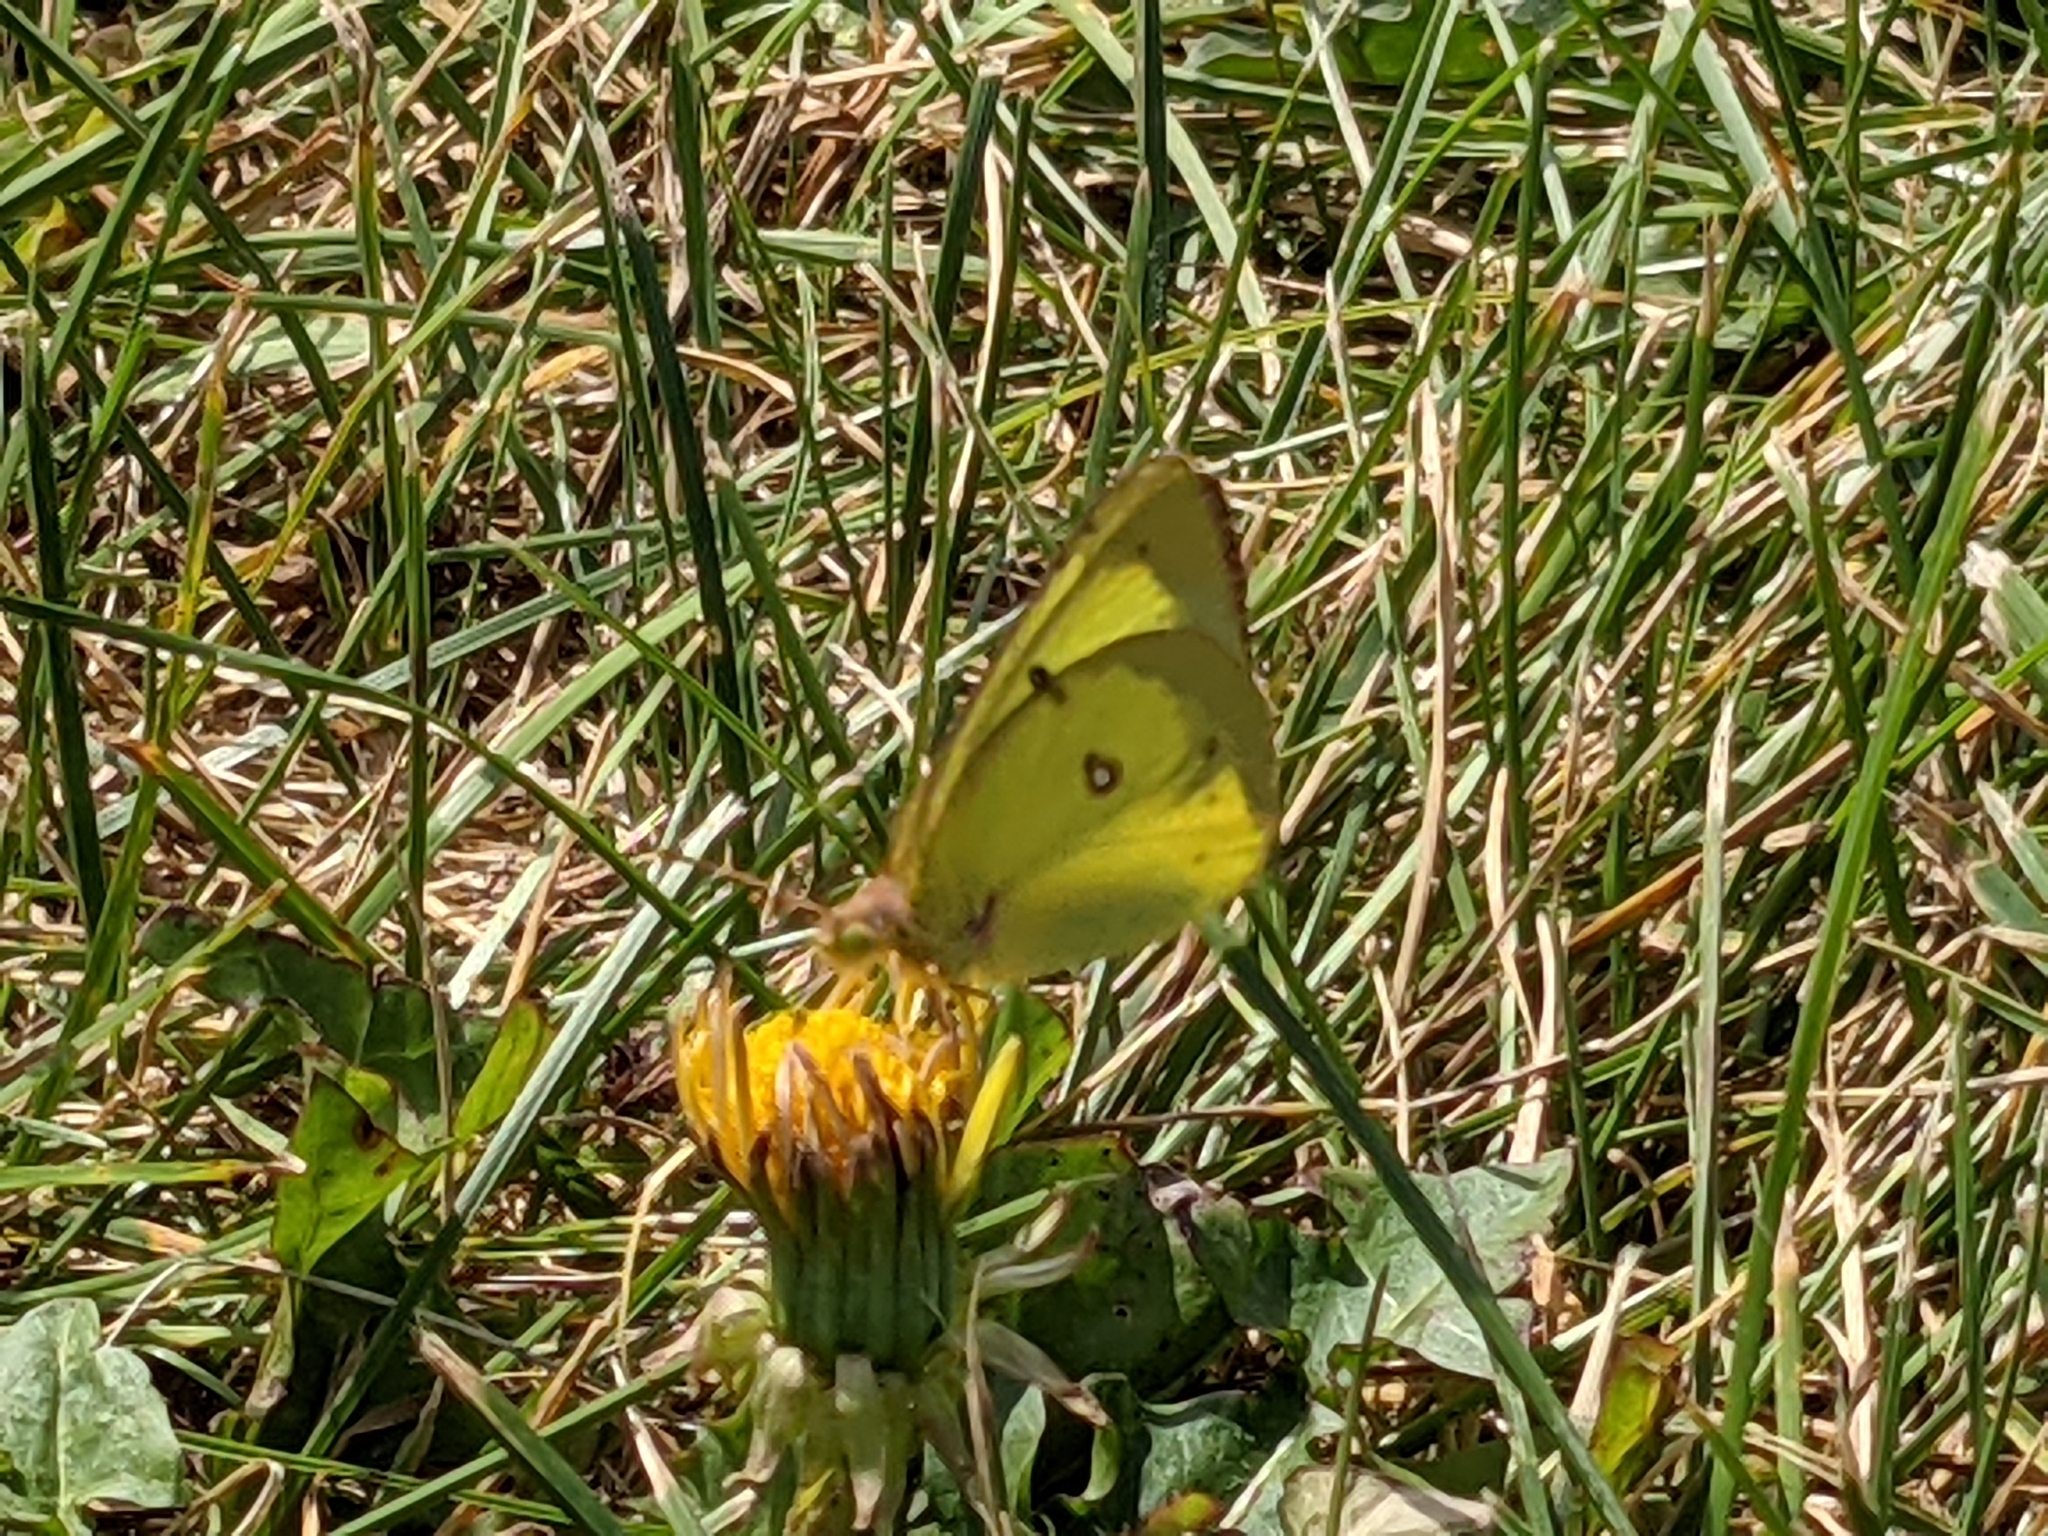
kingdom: Animalia
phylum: Arthropoda
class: Insecta
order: Lepidoptera
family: Pieridae
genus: Colias
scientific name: Colias philodice
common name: Clouded sulphur
